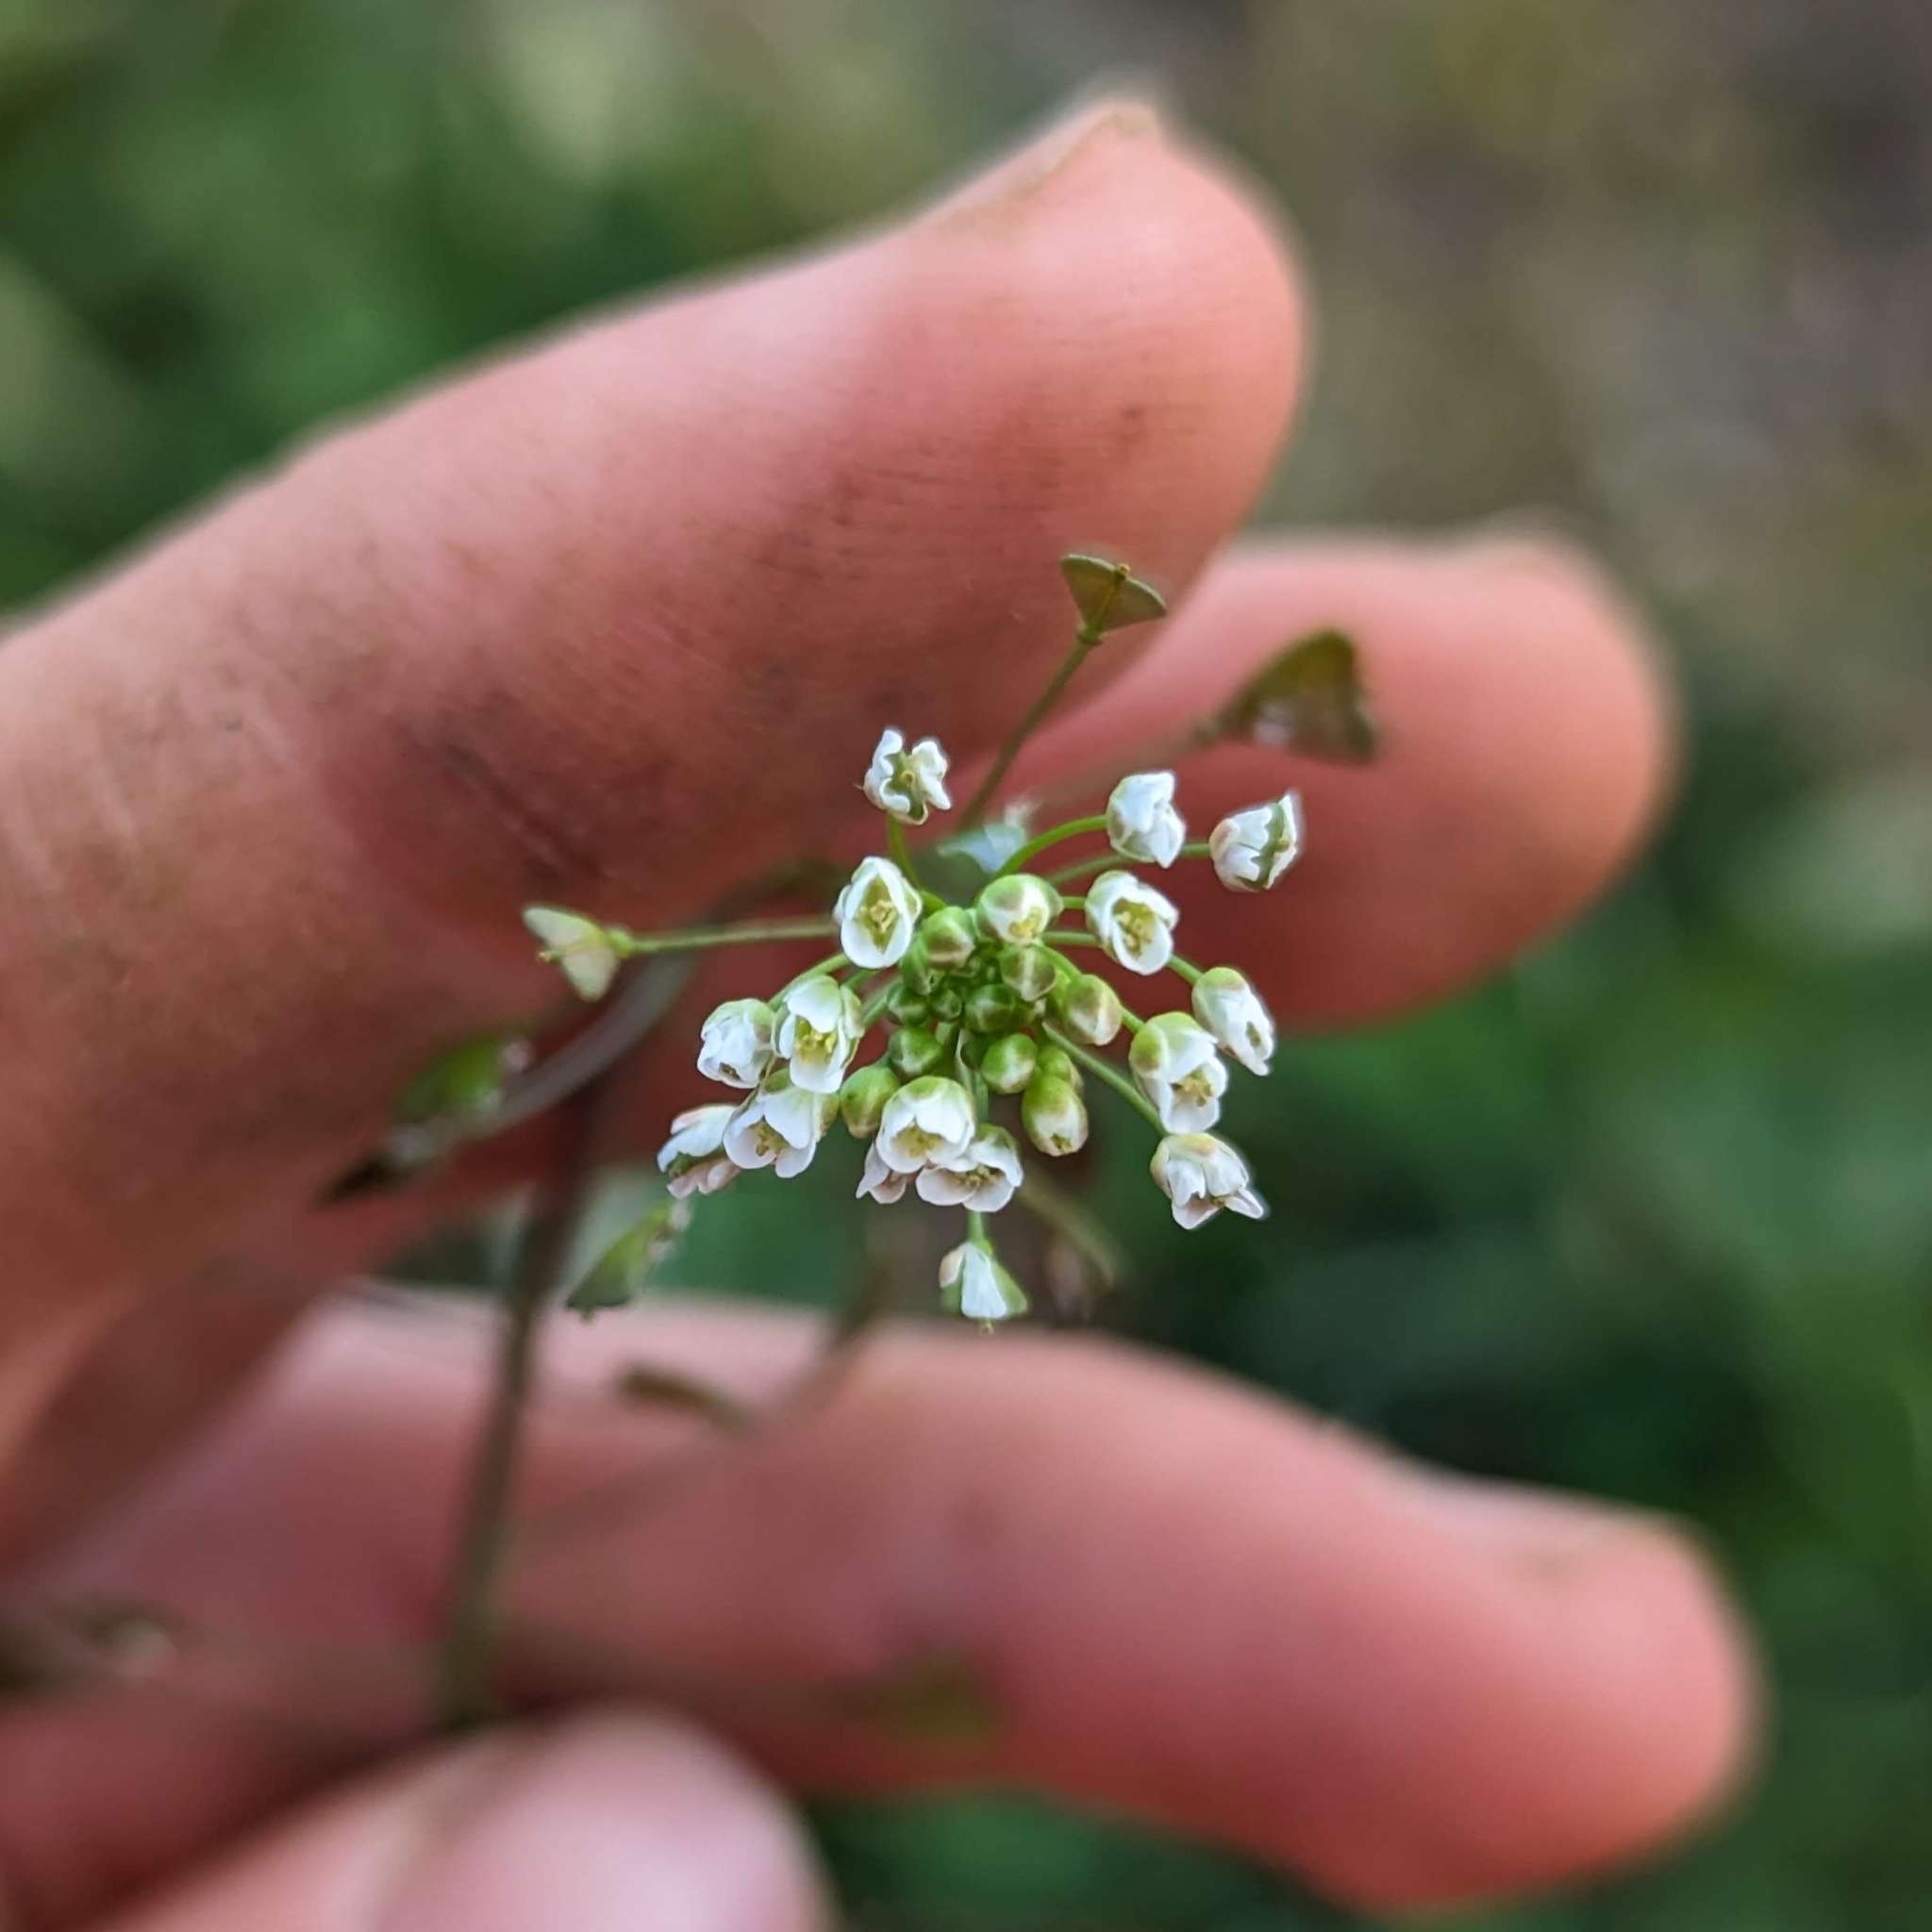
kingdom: Plantae
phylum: Tracheophyta
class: Magnoliopsida
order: Brassicales
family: Brassicaceae
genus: Capsella
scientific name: Capsella bursa-pastoris
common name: Shepherd's purse
